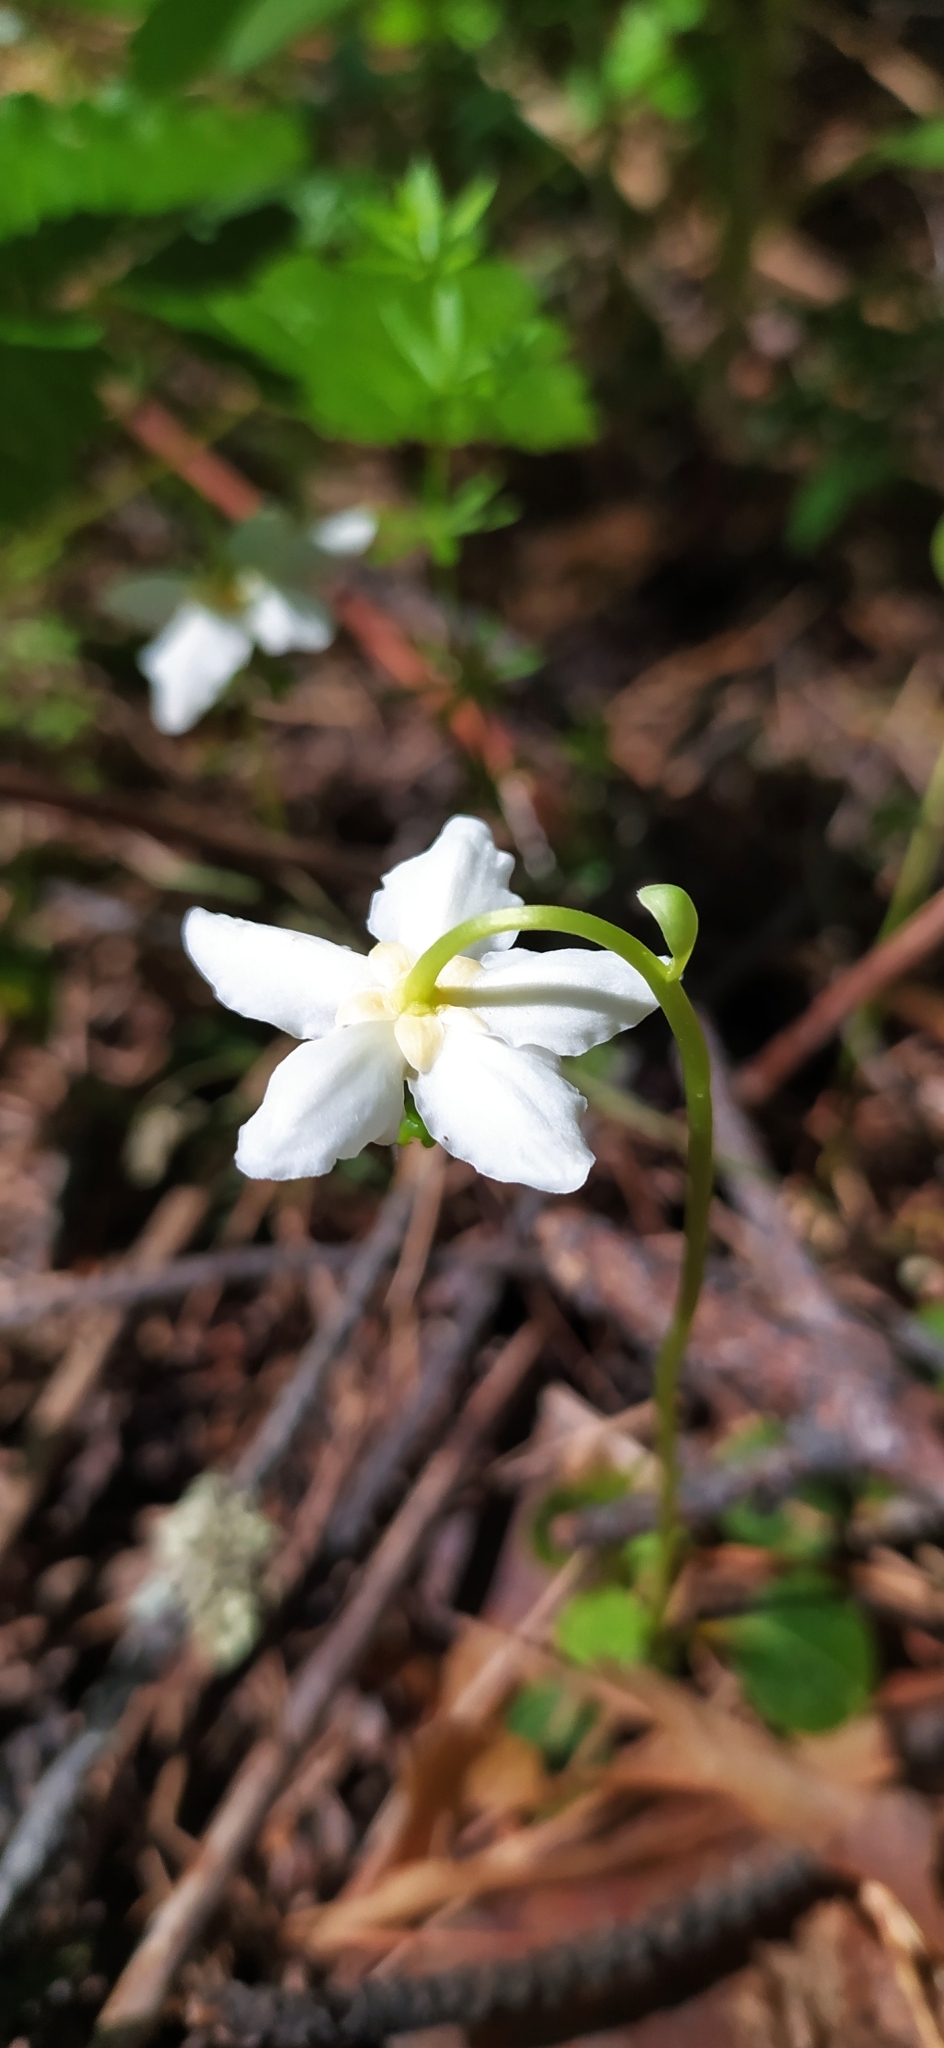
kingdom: Plantae
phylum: Tracheophyta
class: Magnoliopsida
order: Ericales
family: Ericaceae
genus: Moneses
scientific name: Moneses uniflora
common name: One-flowered wintergreen
